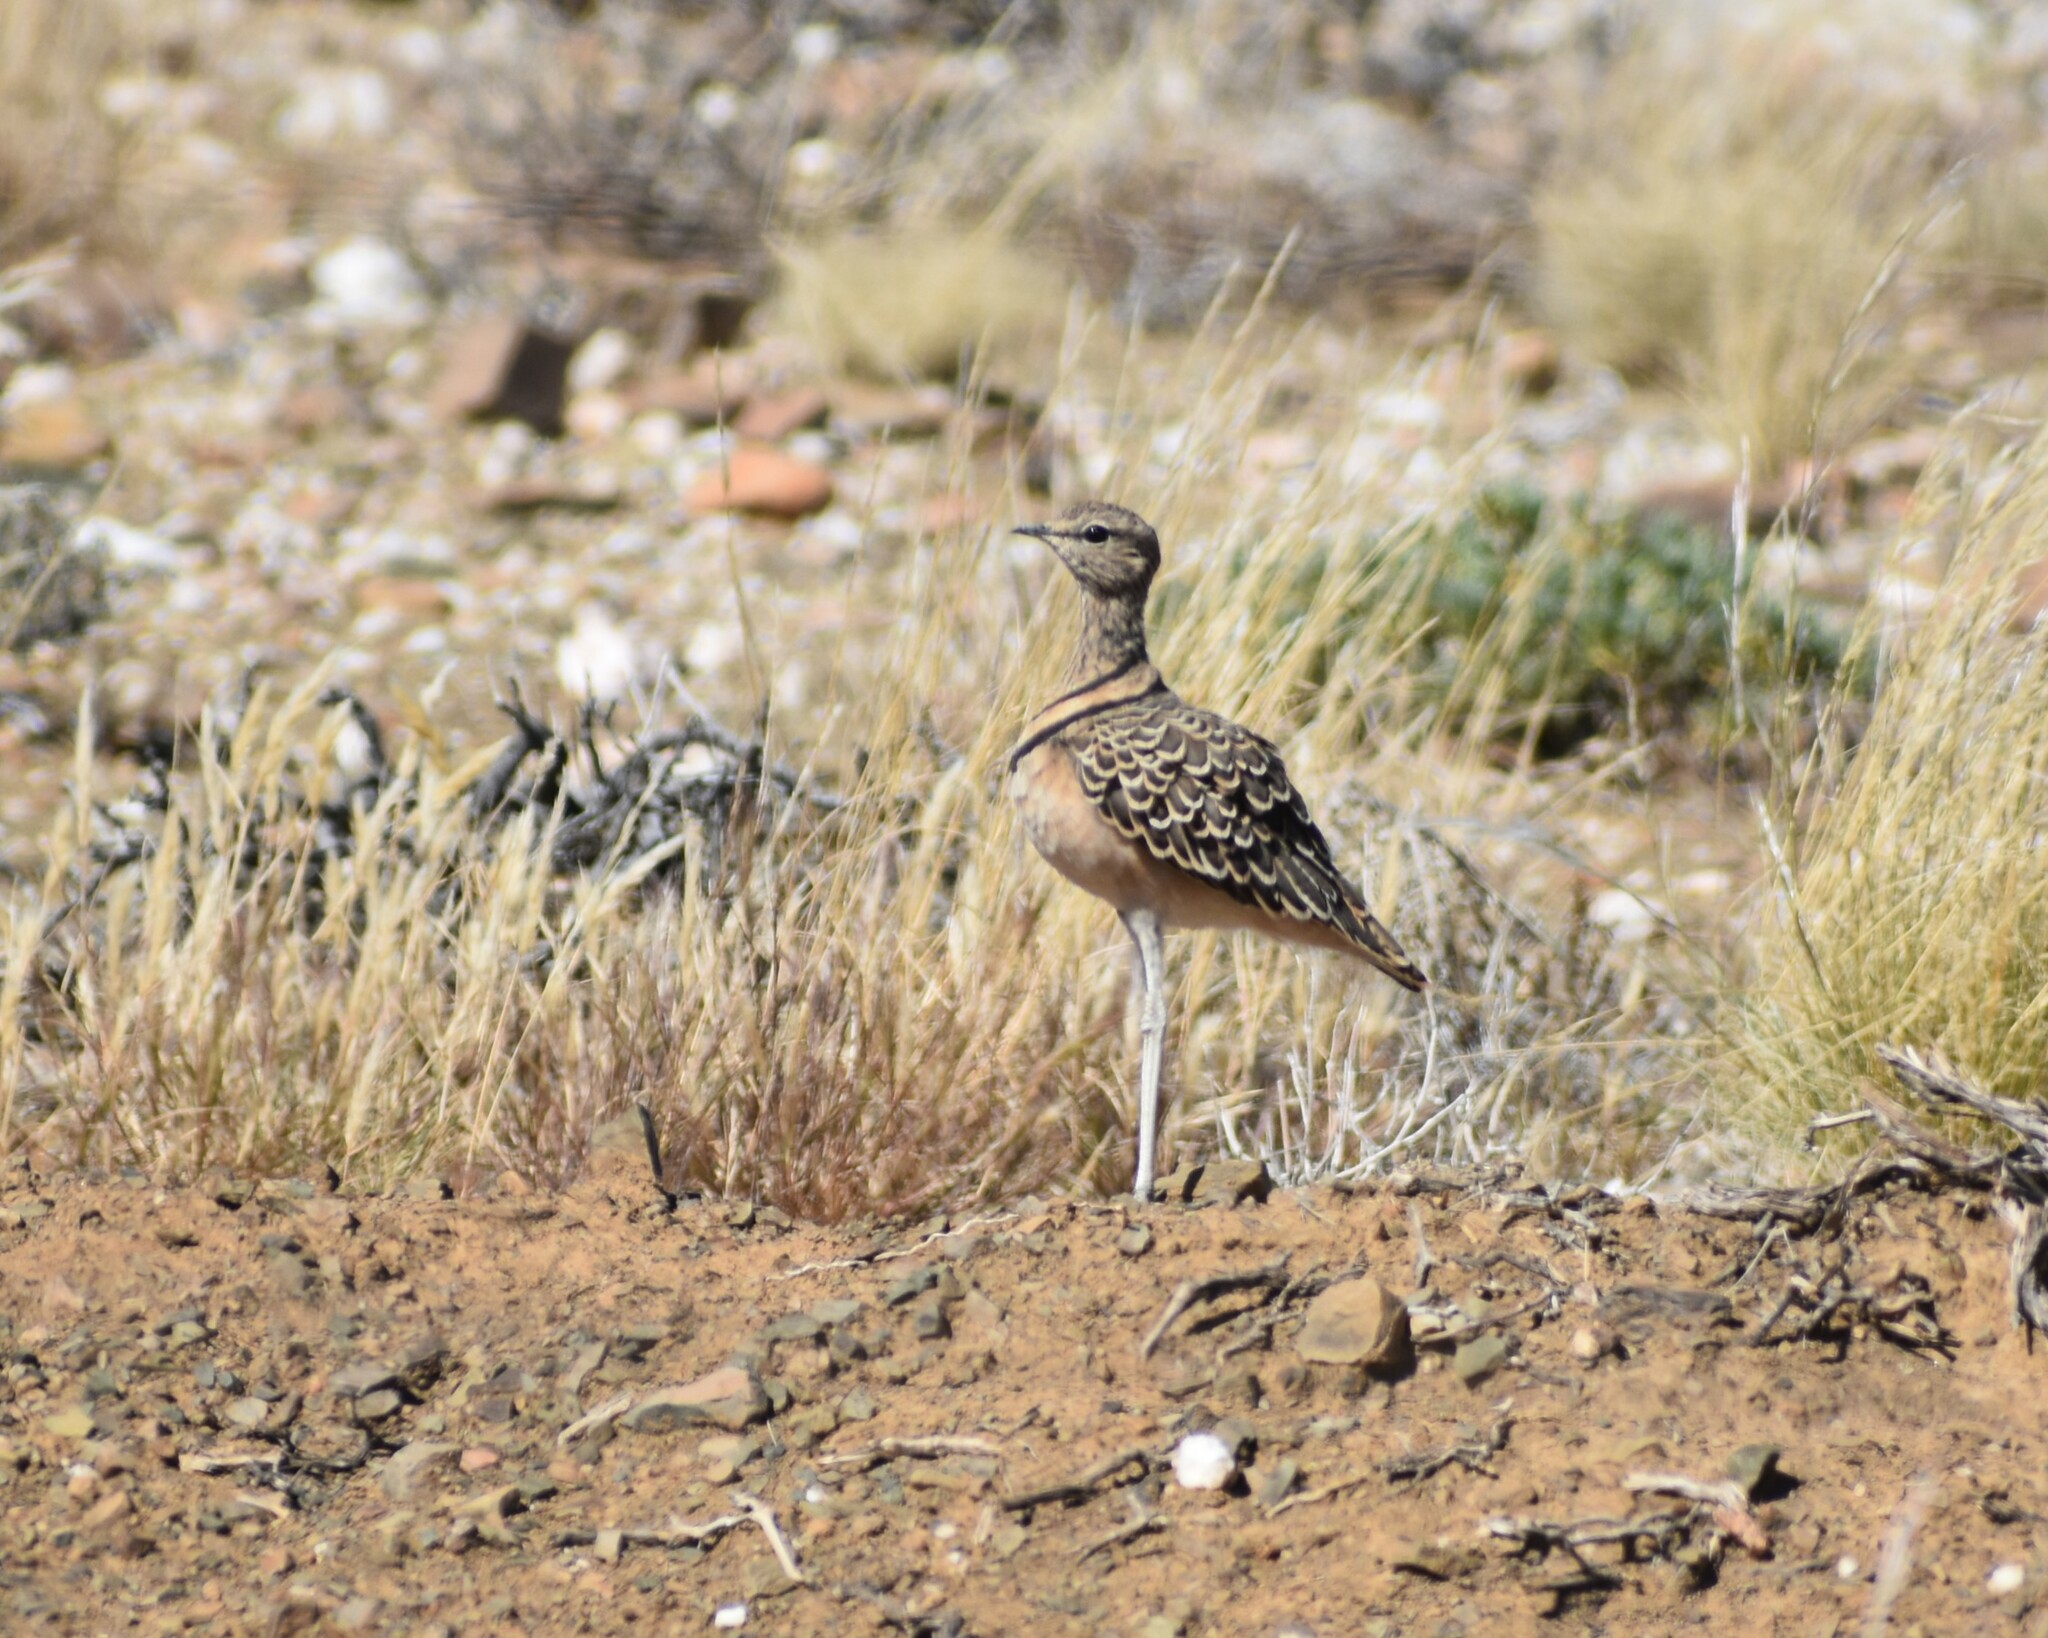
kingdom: Animalia
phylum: Chordata
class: Aves
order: Charadriiformes
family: Glareolidae
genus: Rhinoptilus
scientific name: Rhinoptilus africanus
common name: Double-banded courser
